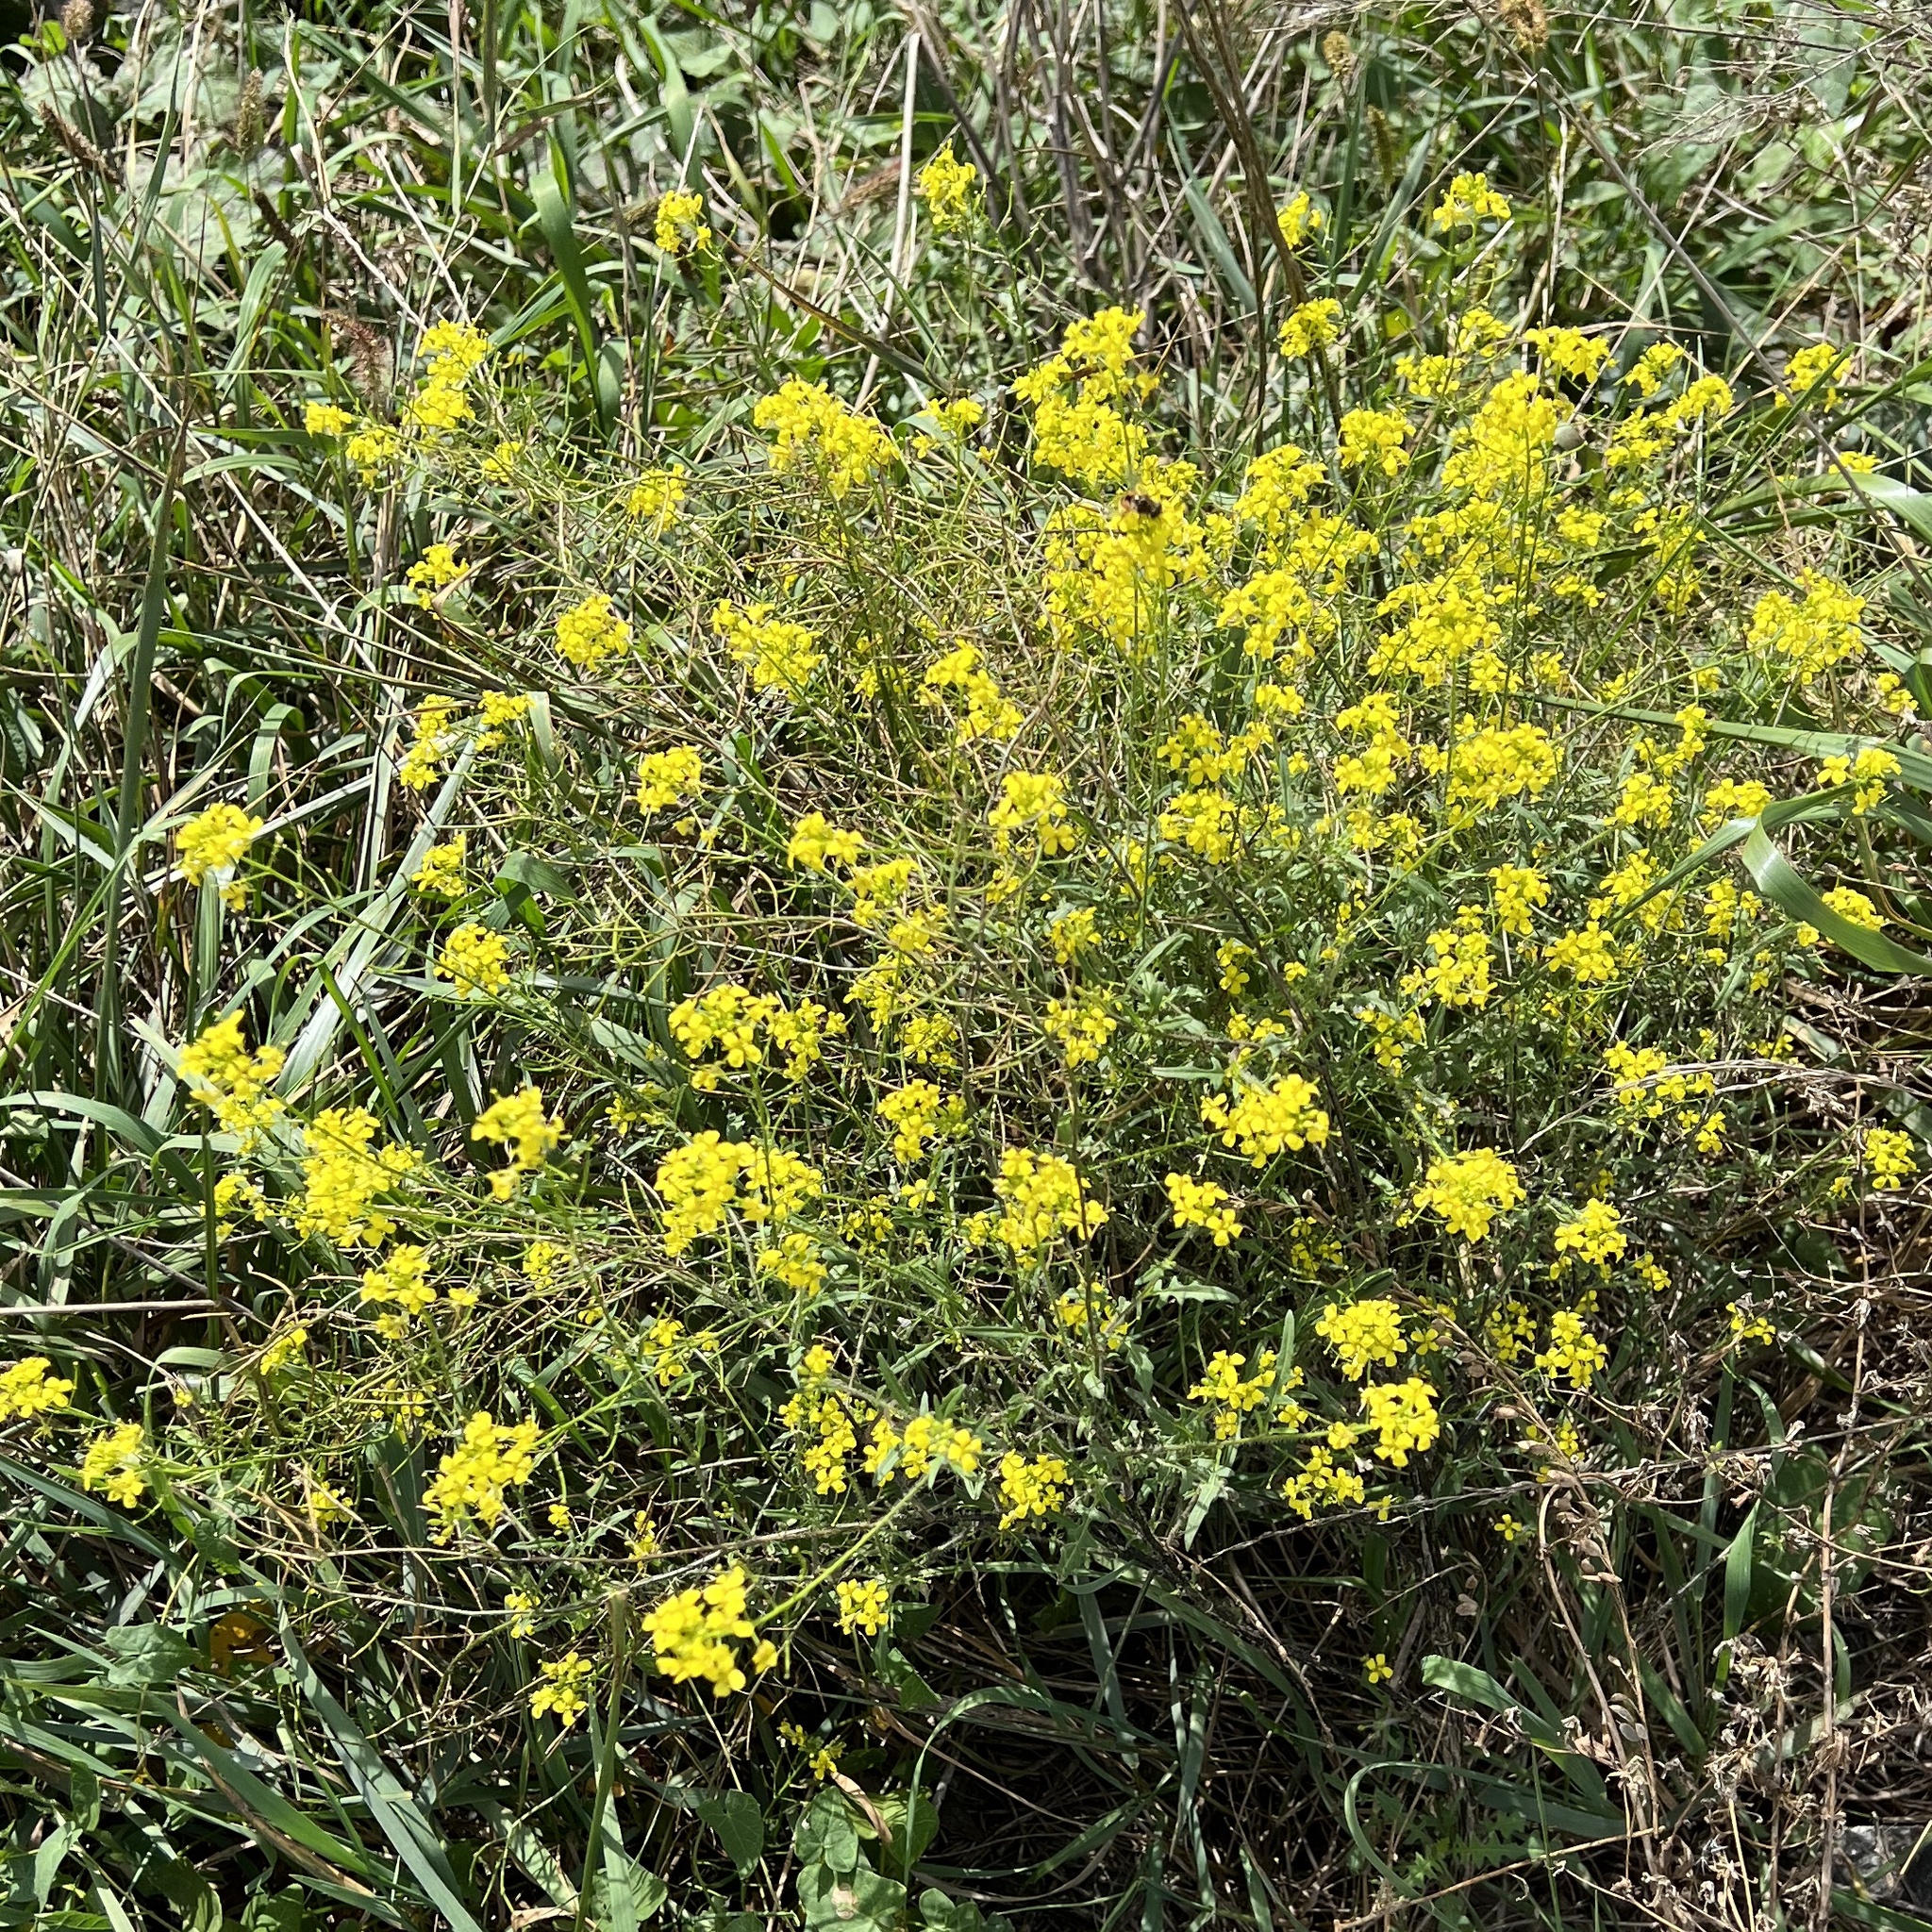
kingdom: Plantae
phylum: Tracheophyta
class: Magnoliopsida
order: Brassicales
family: Brassicaceae
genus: Sisymbrium
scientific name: Sisymbrium loeselii
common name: False london-rocket
